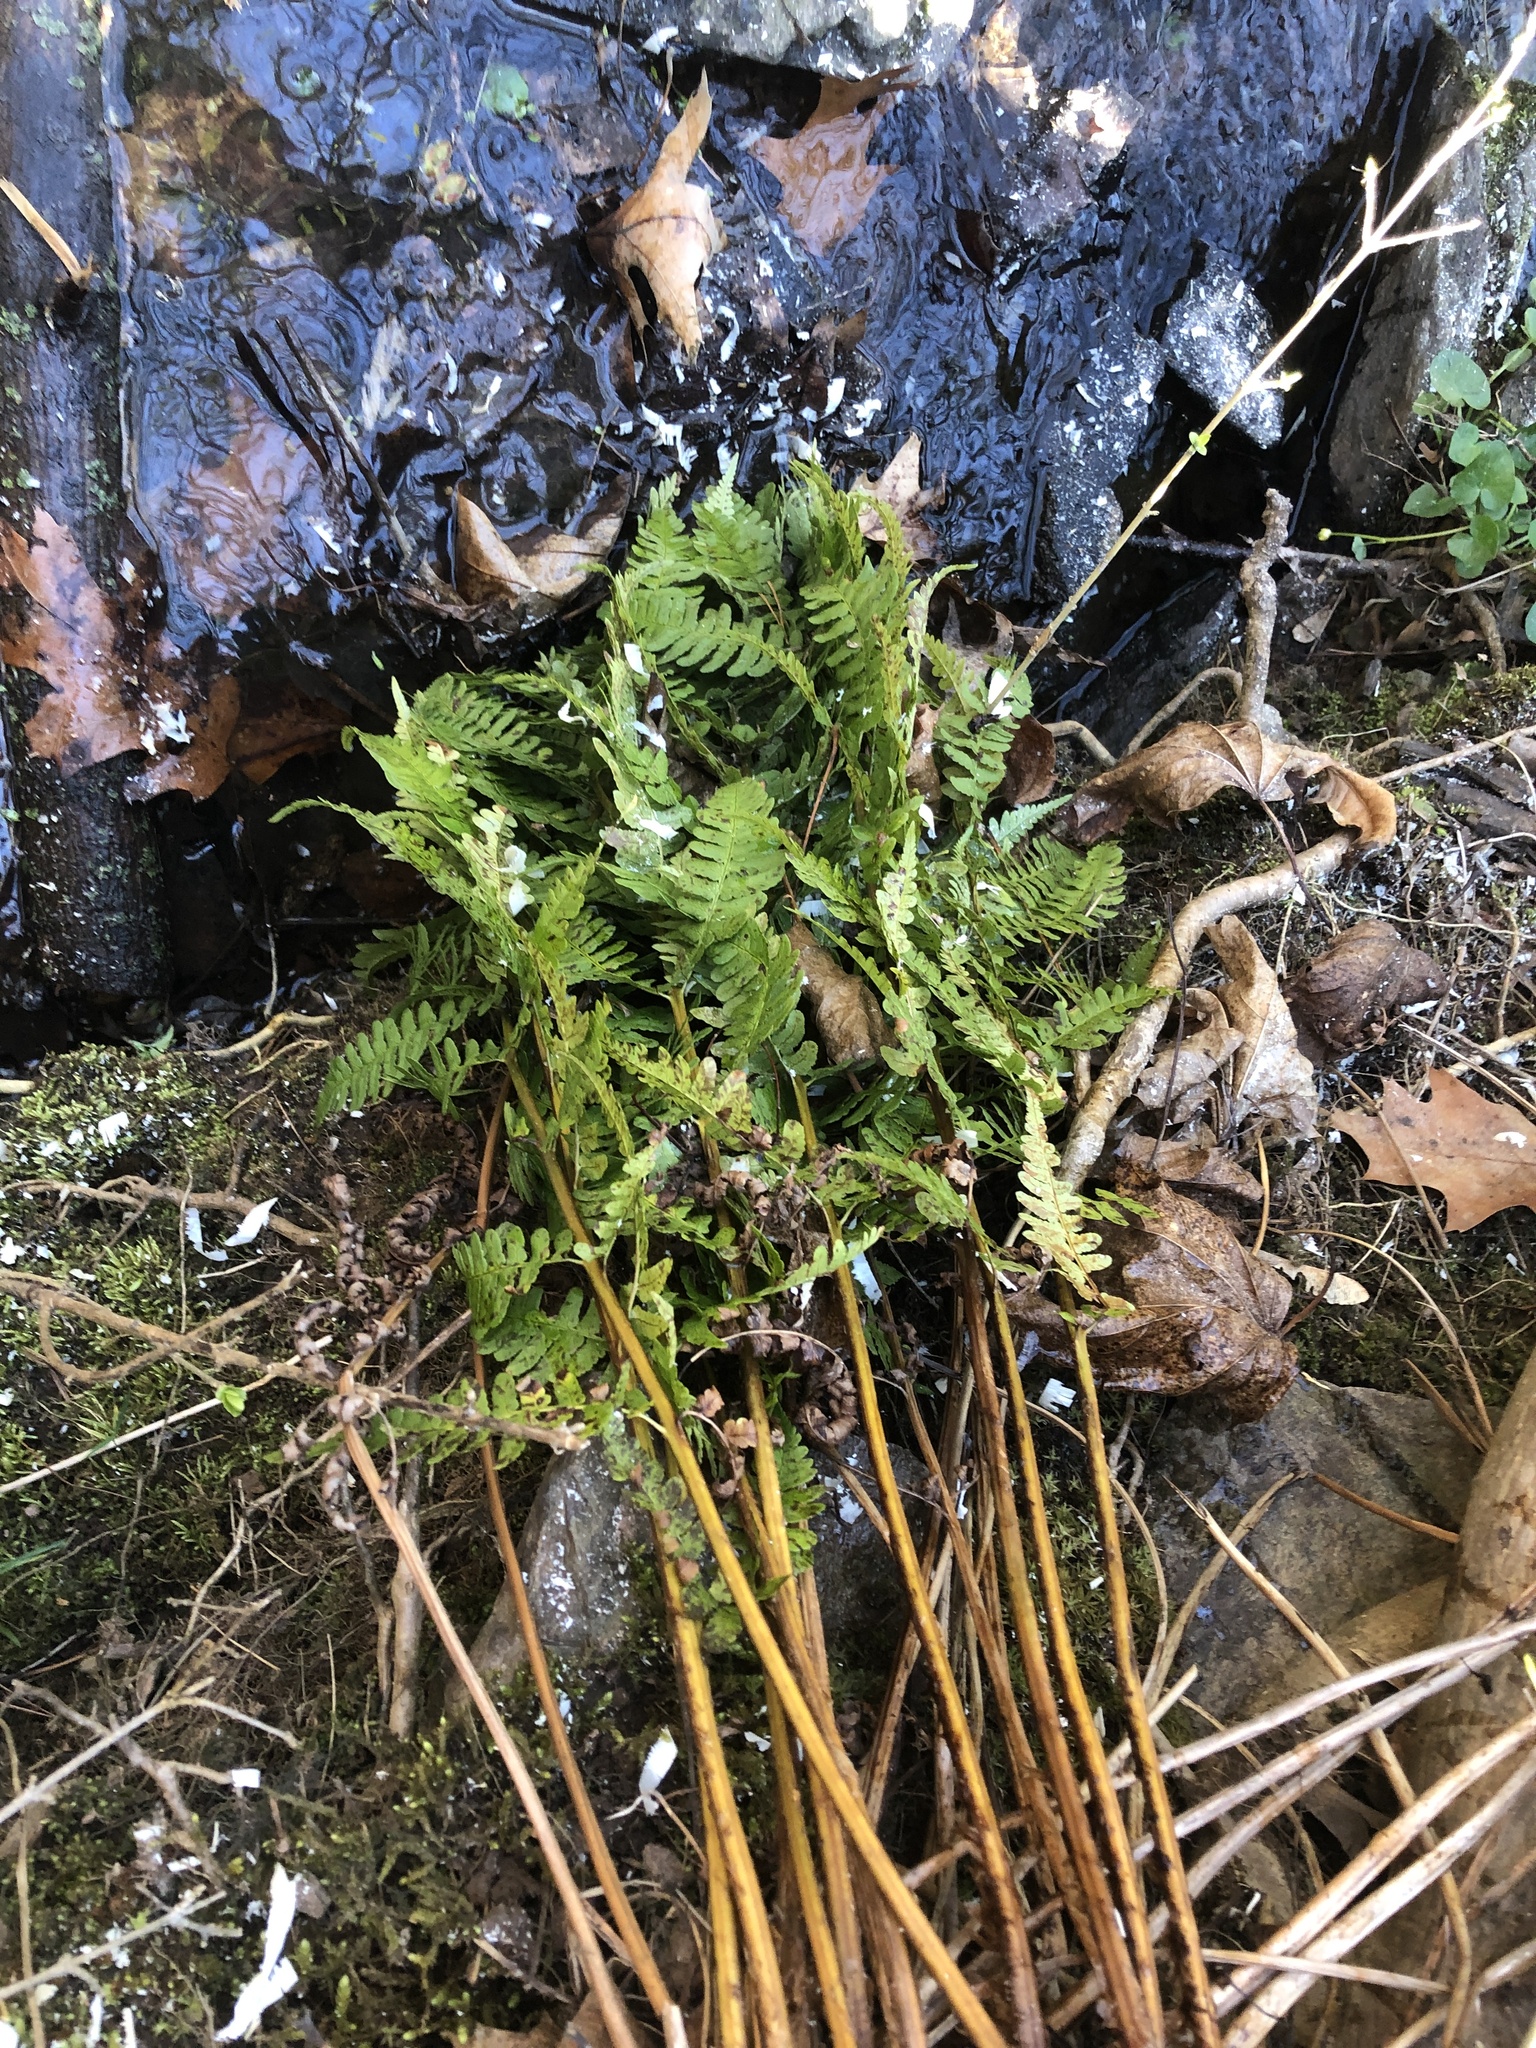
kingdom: Plantae
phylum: Tracheophyta
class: Polypodiopsida
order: Polypodiales
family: Dryopteridaceae
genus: Dryopteris
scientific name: Dryopteris marginalis
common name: Marginal wood fern
